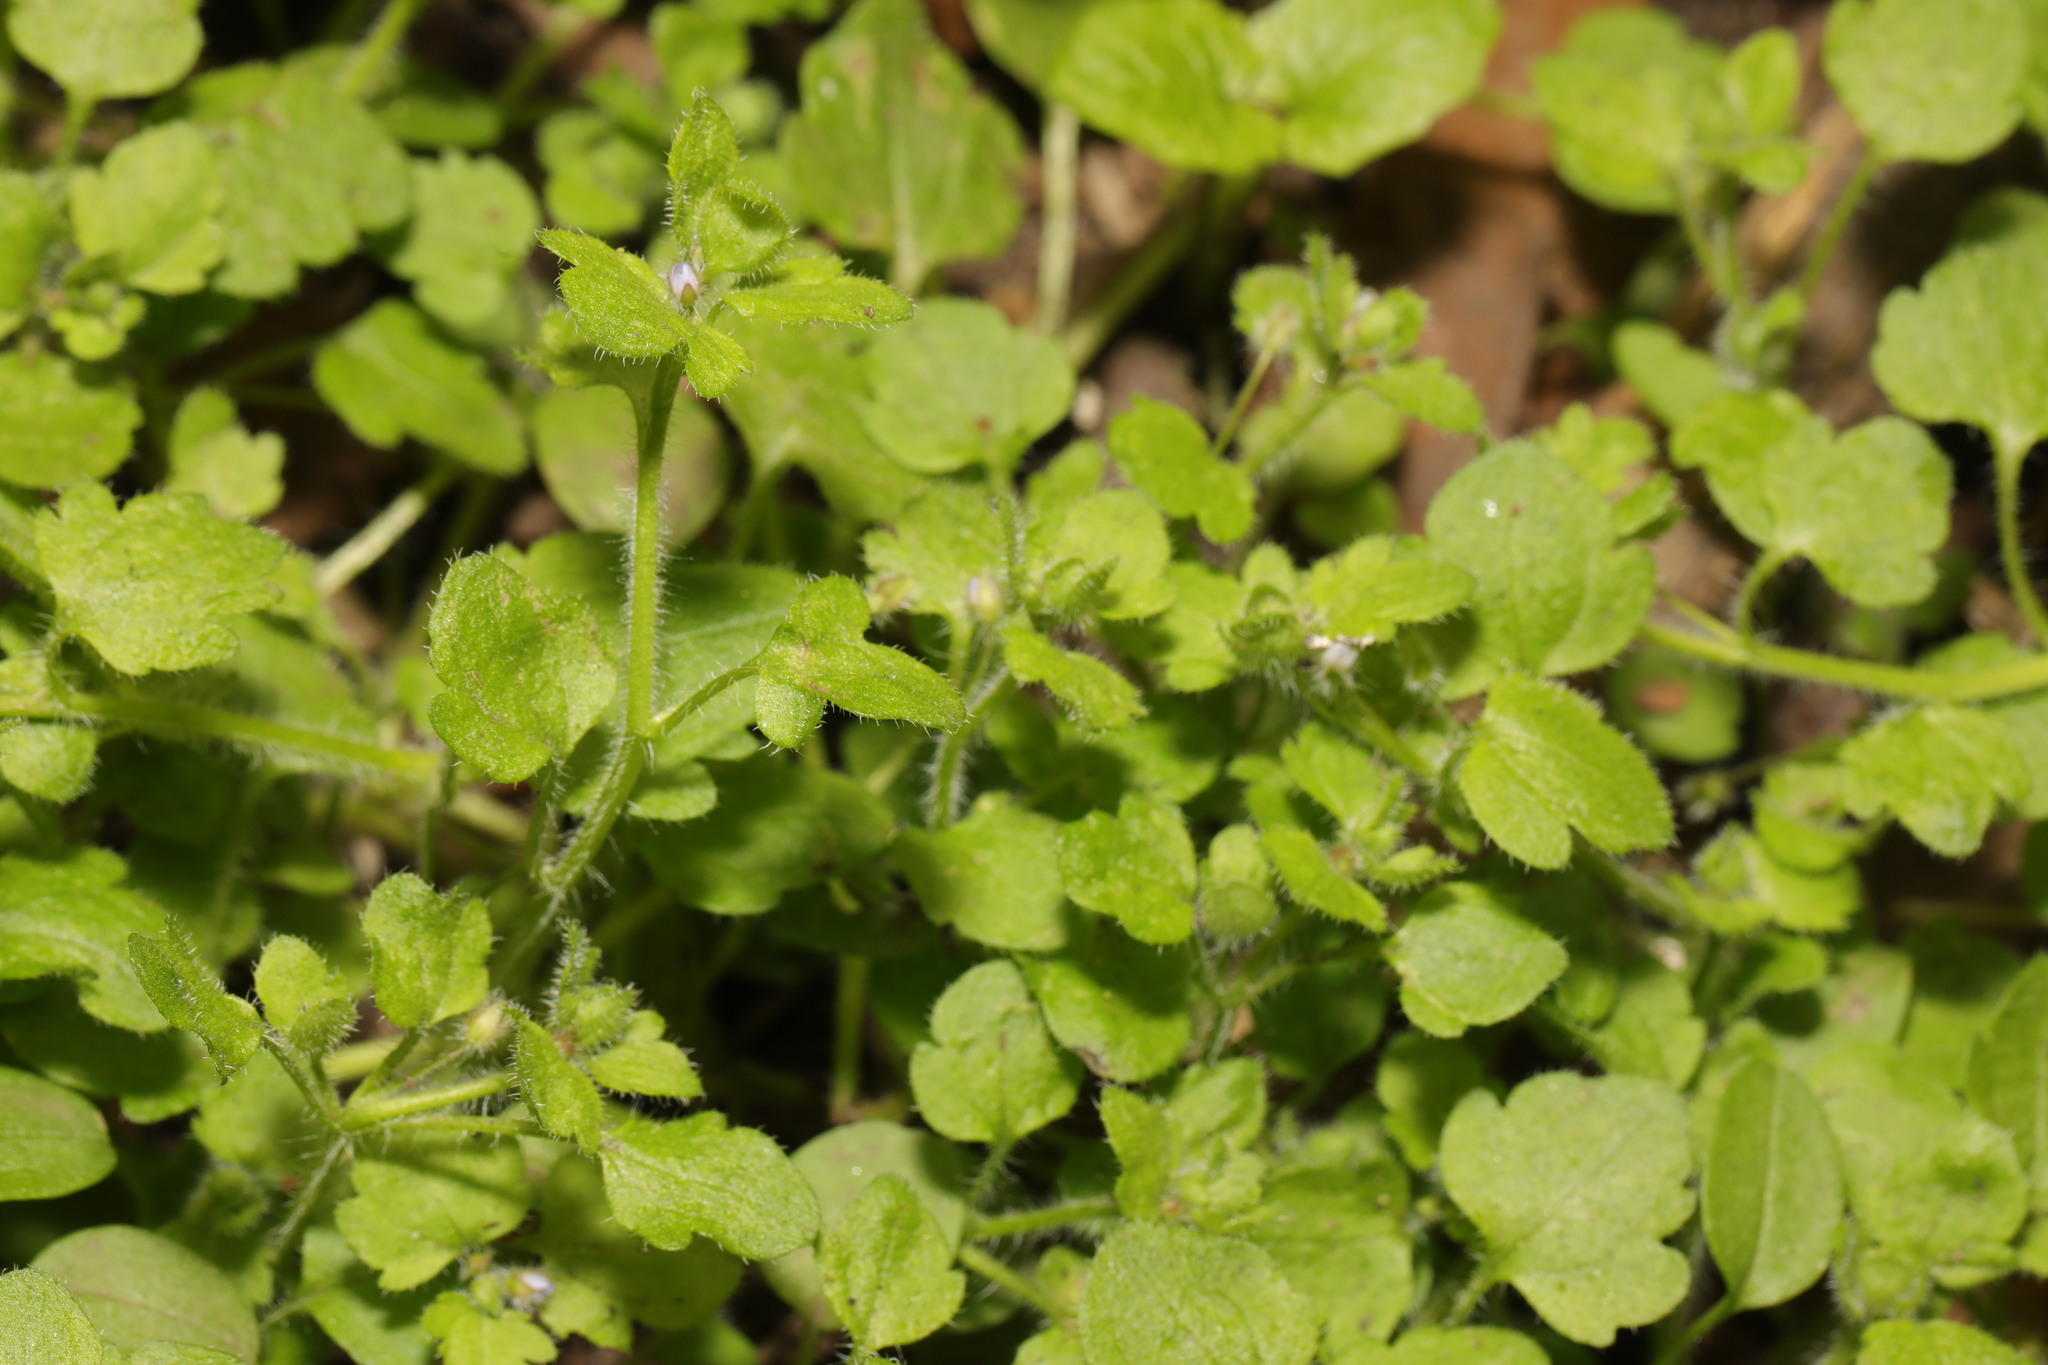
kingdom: Plantae
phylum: Tracheophyta
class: Magnoliopsida
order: Lamiales
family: Plantaginaceae
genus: Veronica
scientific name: Veronica sublobata
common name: False ivy-leaved speedwell
